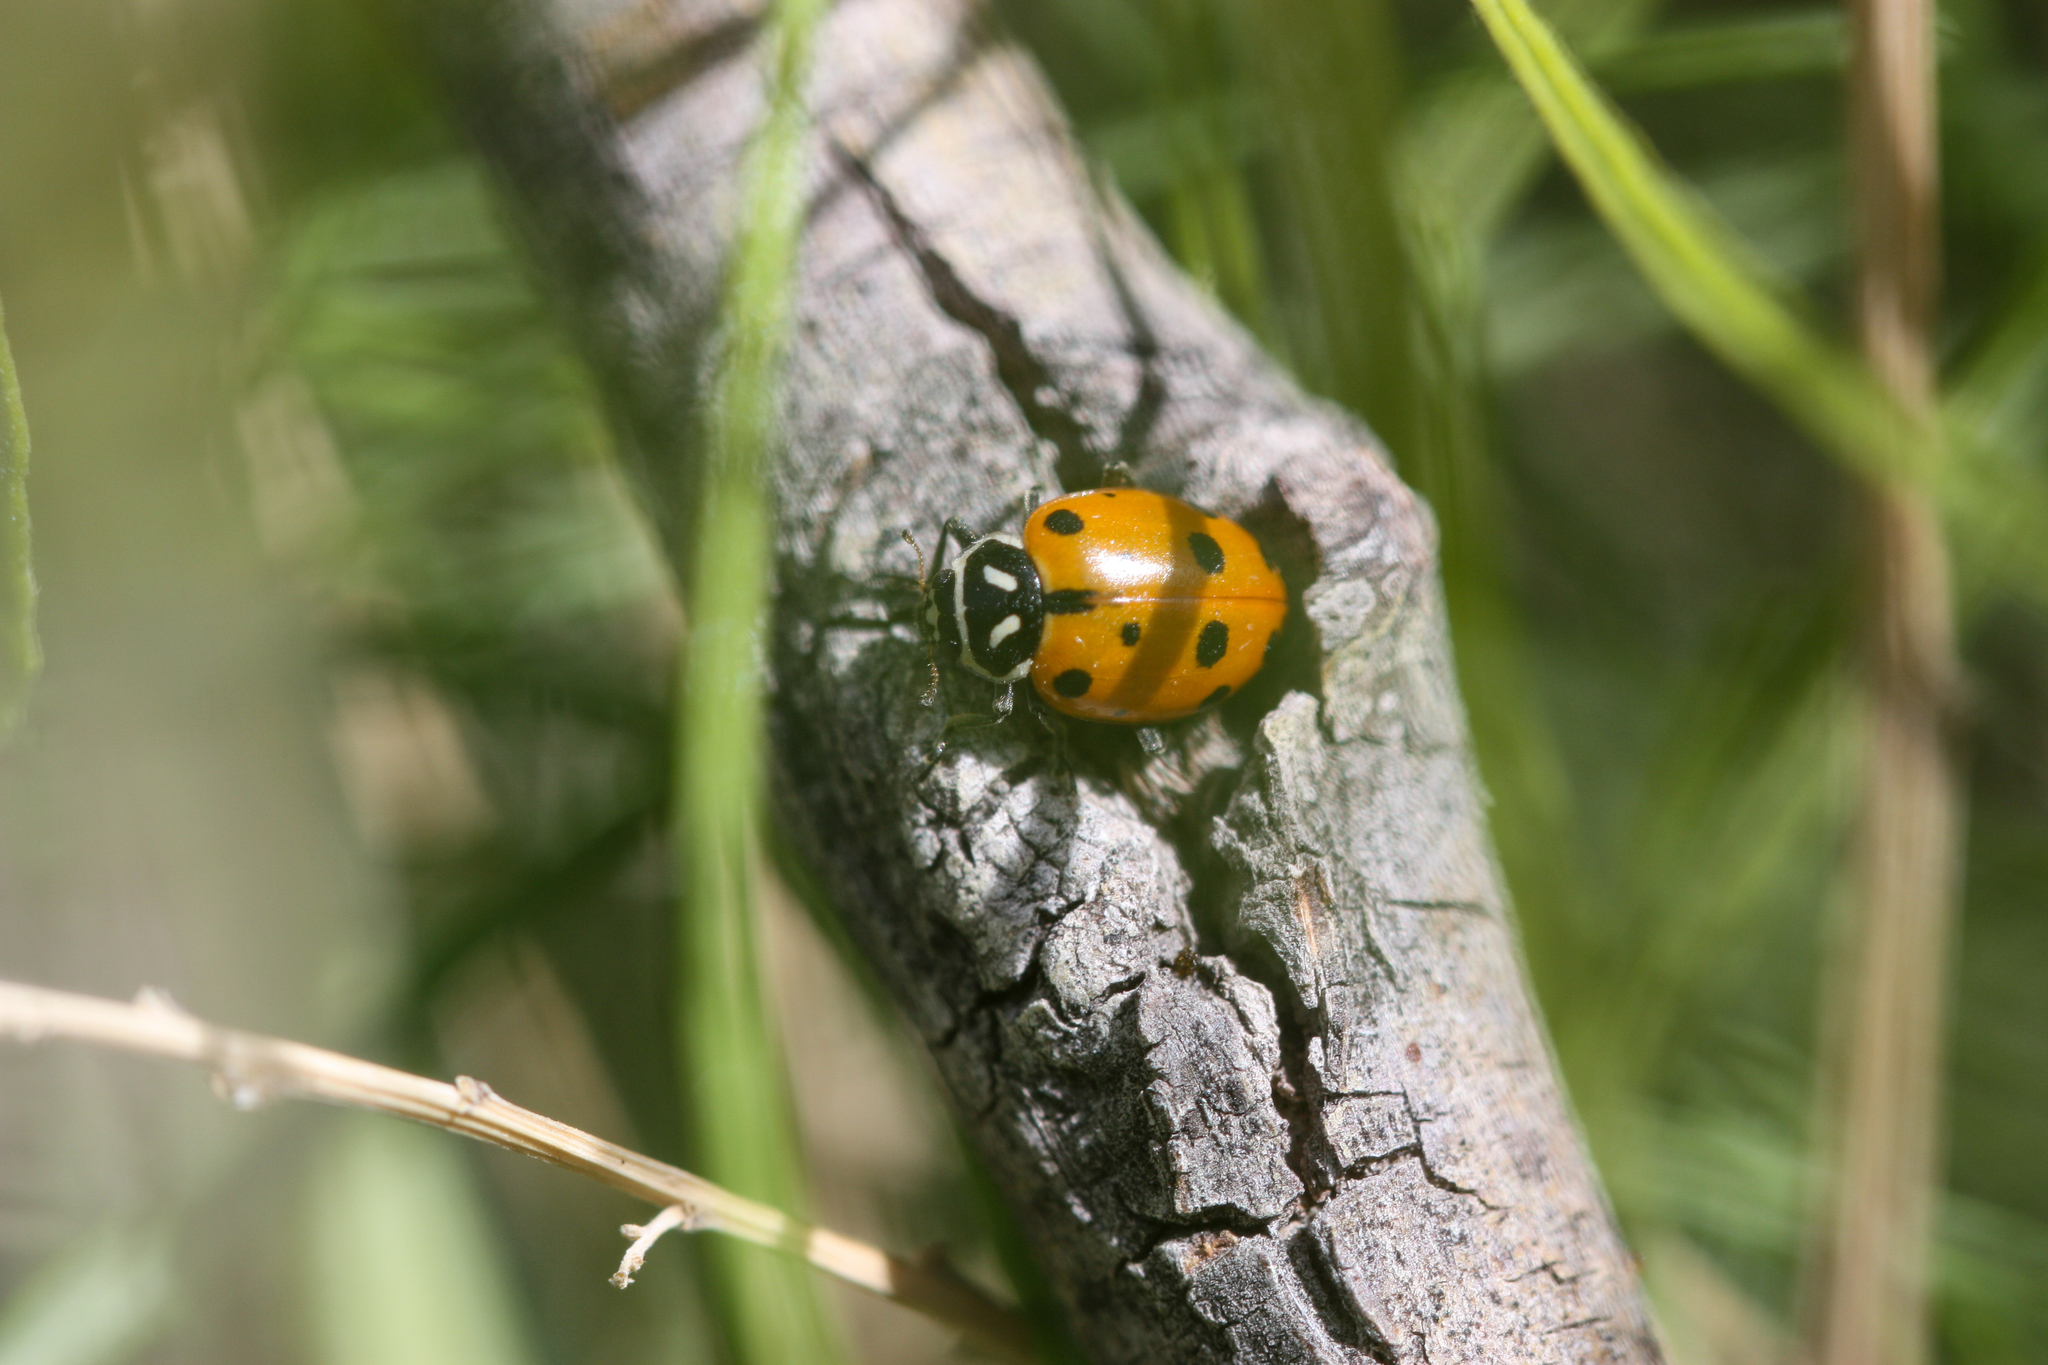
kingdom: Animalia
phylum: Arthropoda
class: Insecta
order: Coleoptera
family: Coccinellidae
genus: Hippodamia
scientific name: Hippodamia convergens
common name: Convergent lady beetle
